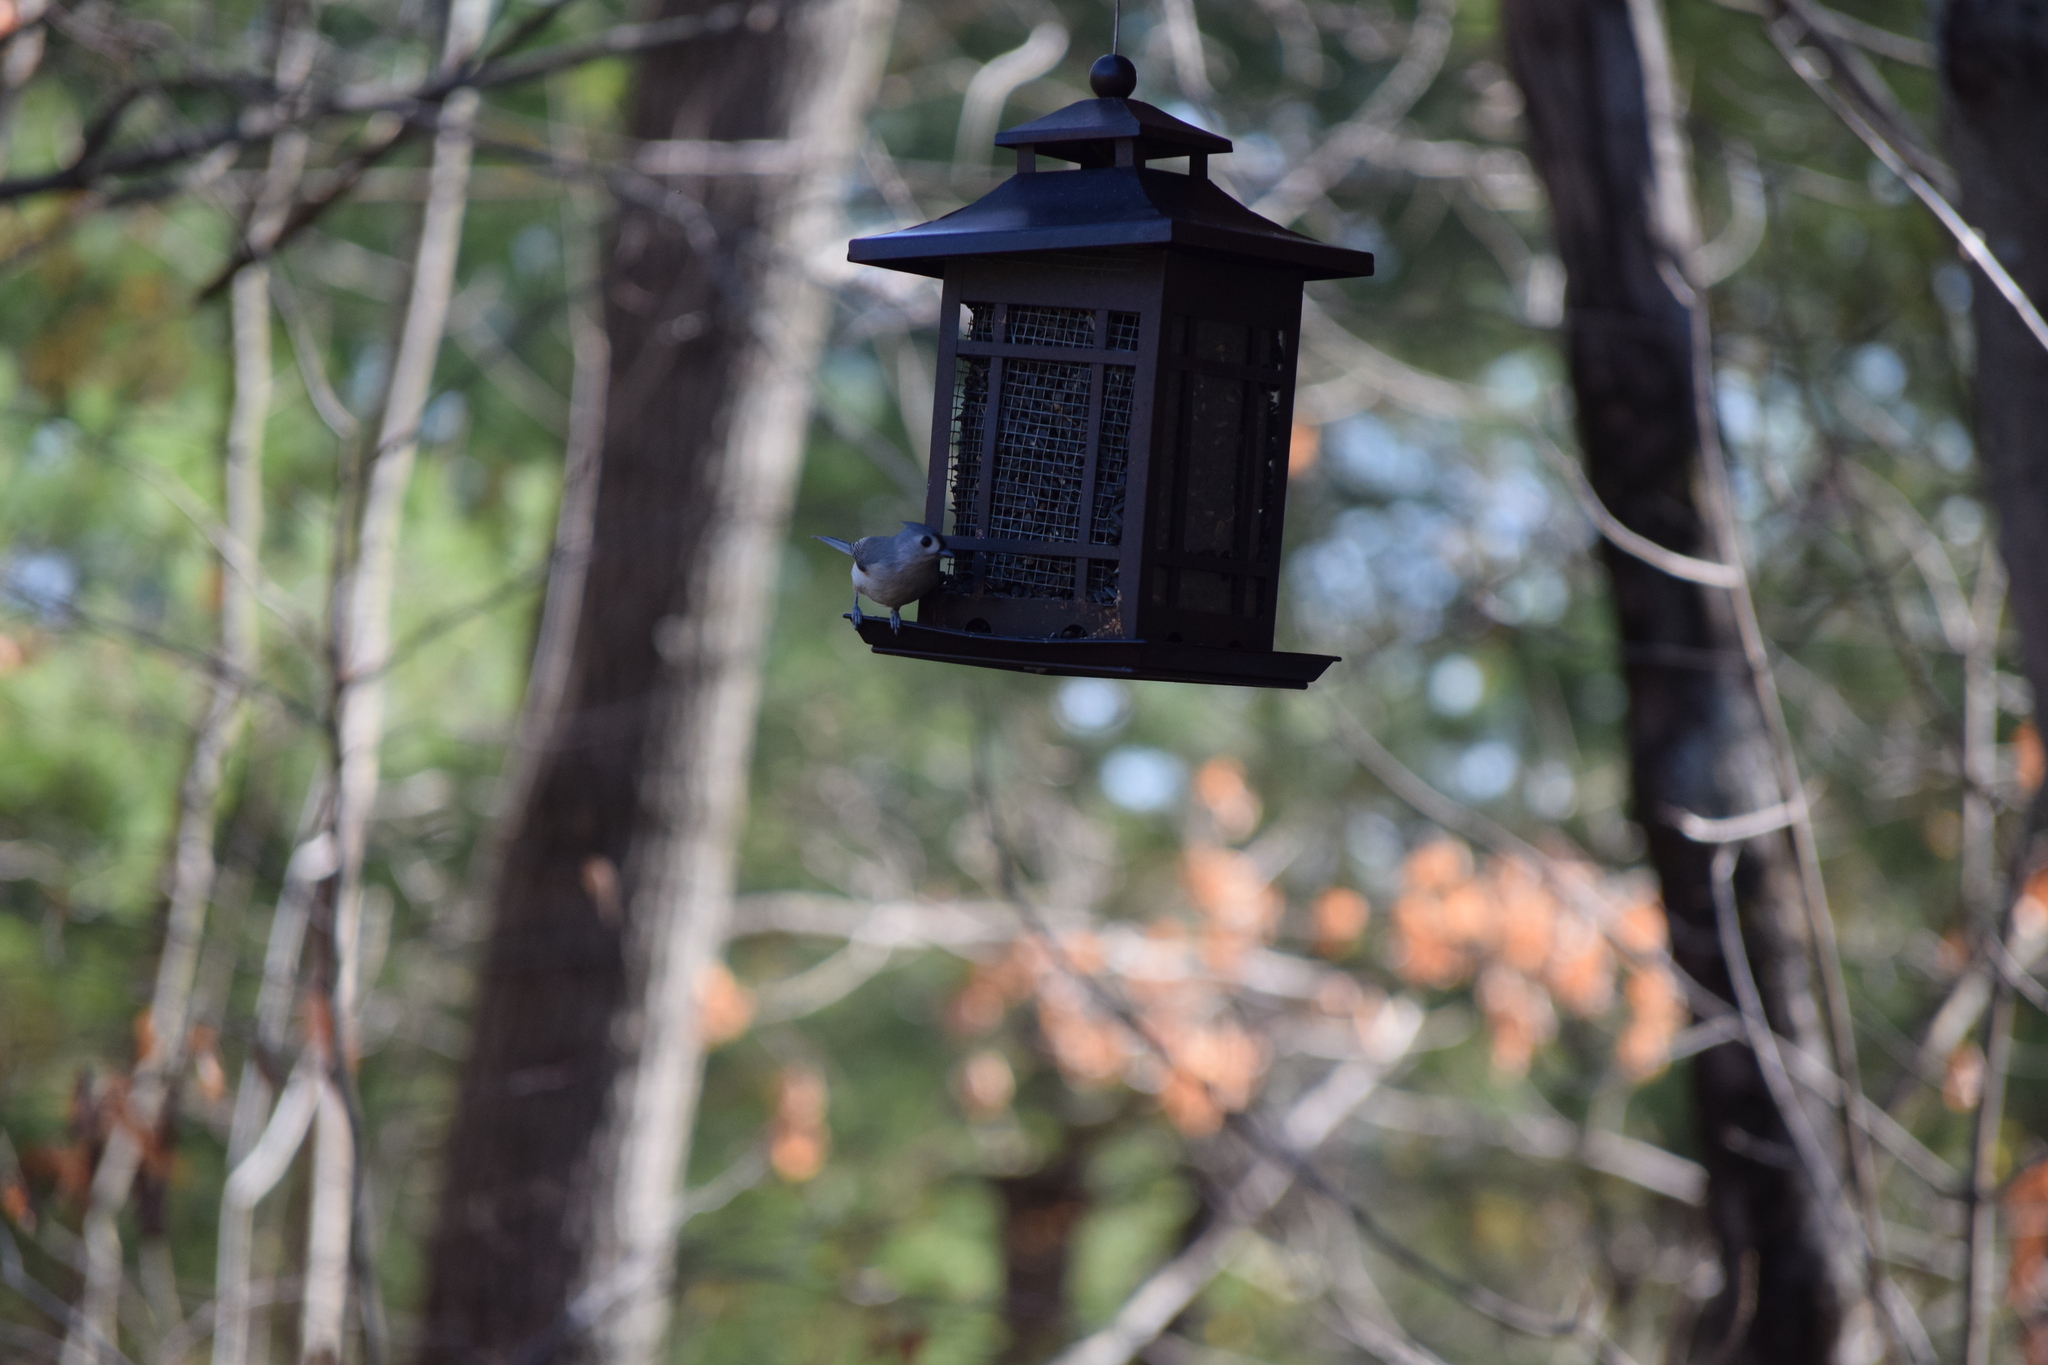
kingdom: Animalia
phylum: Chordata
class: Aves
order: Passeriformes
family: Paridae
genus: Baeolophus
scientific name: Baeolophus bicolor
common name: Tufted titmouse
